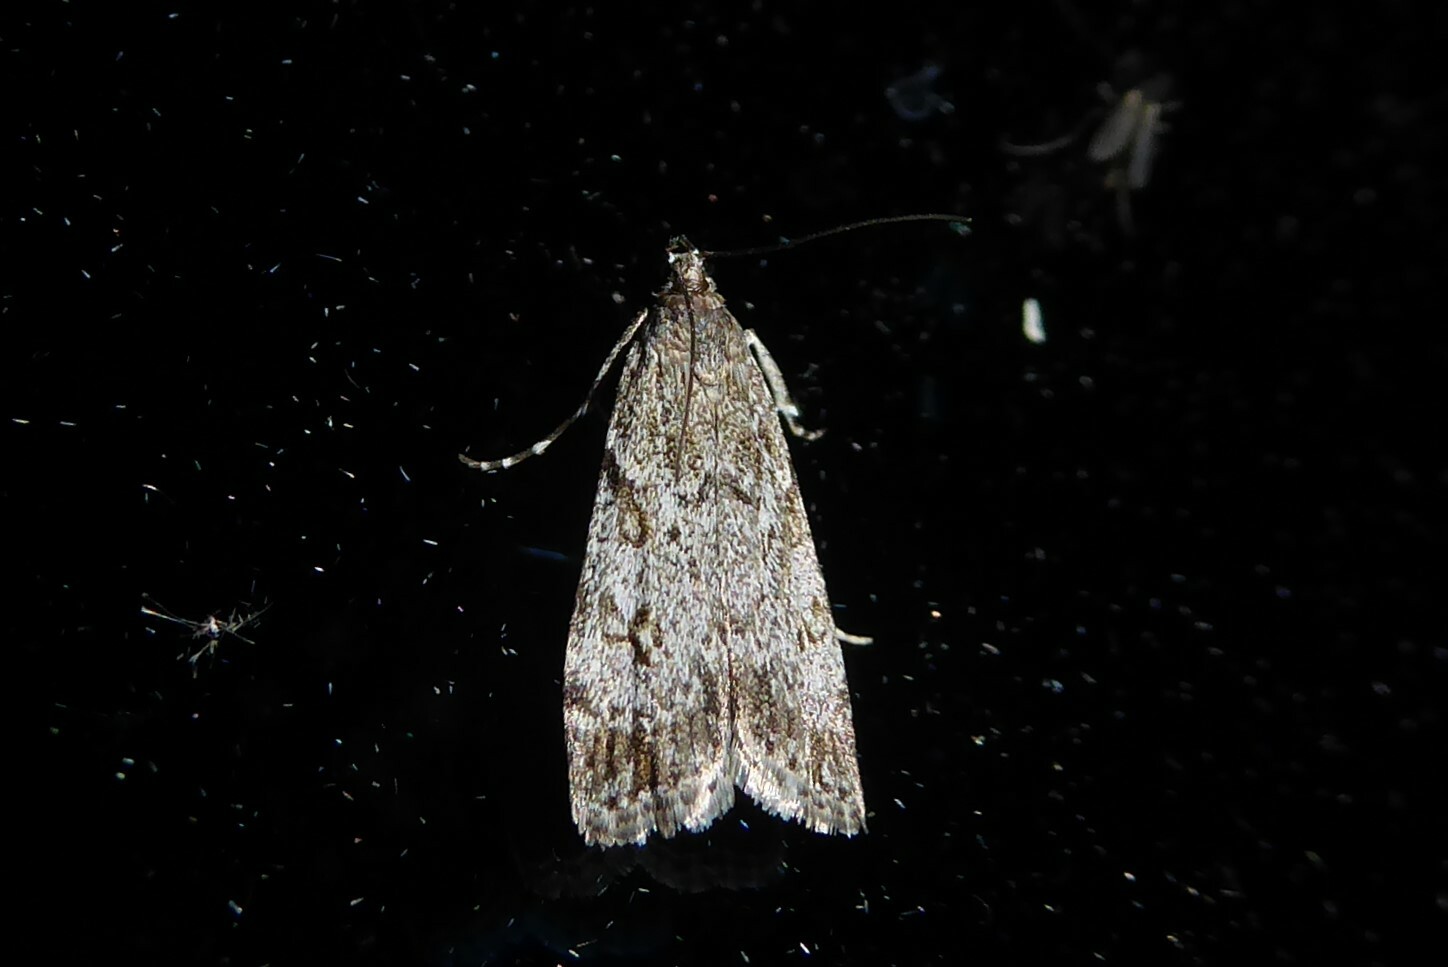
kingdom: Animalia
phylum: Arthropoda
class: Insecta
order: Lepidoptera
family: Crambidae
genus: Eudonia
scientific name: Eudonia cymatias
